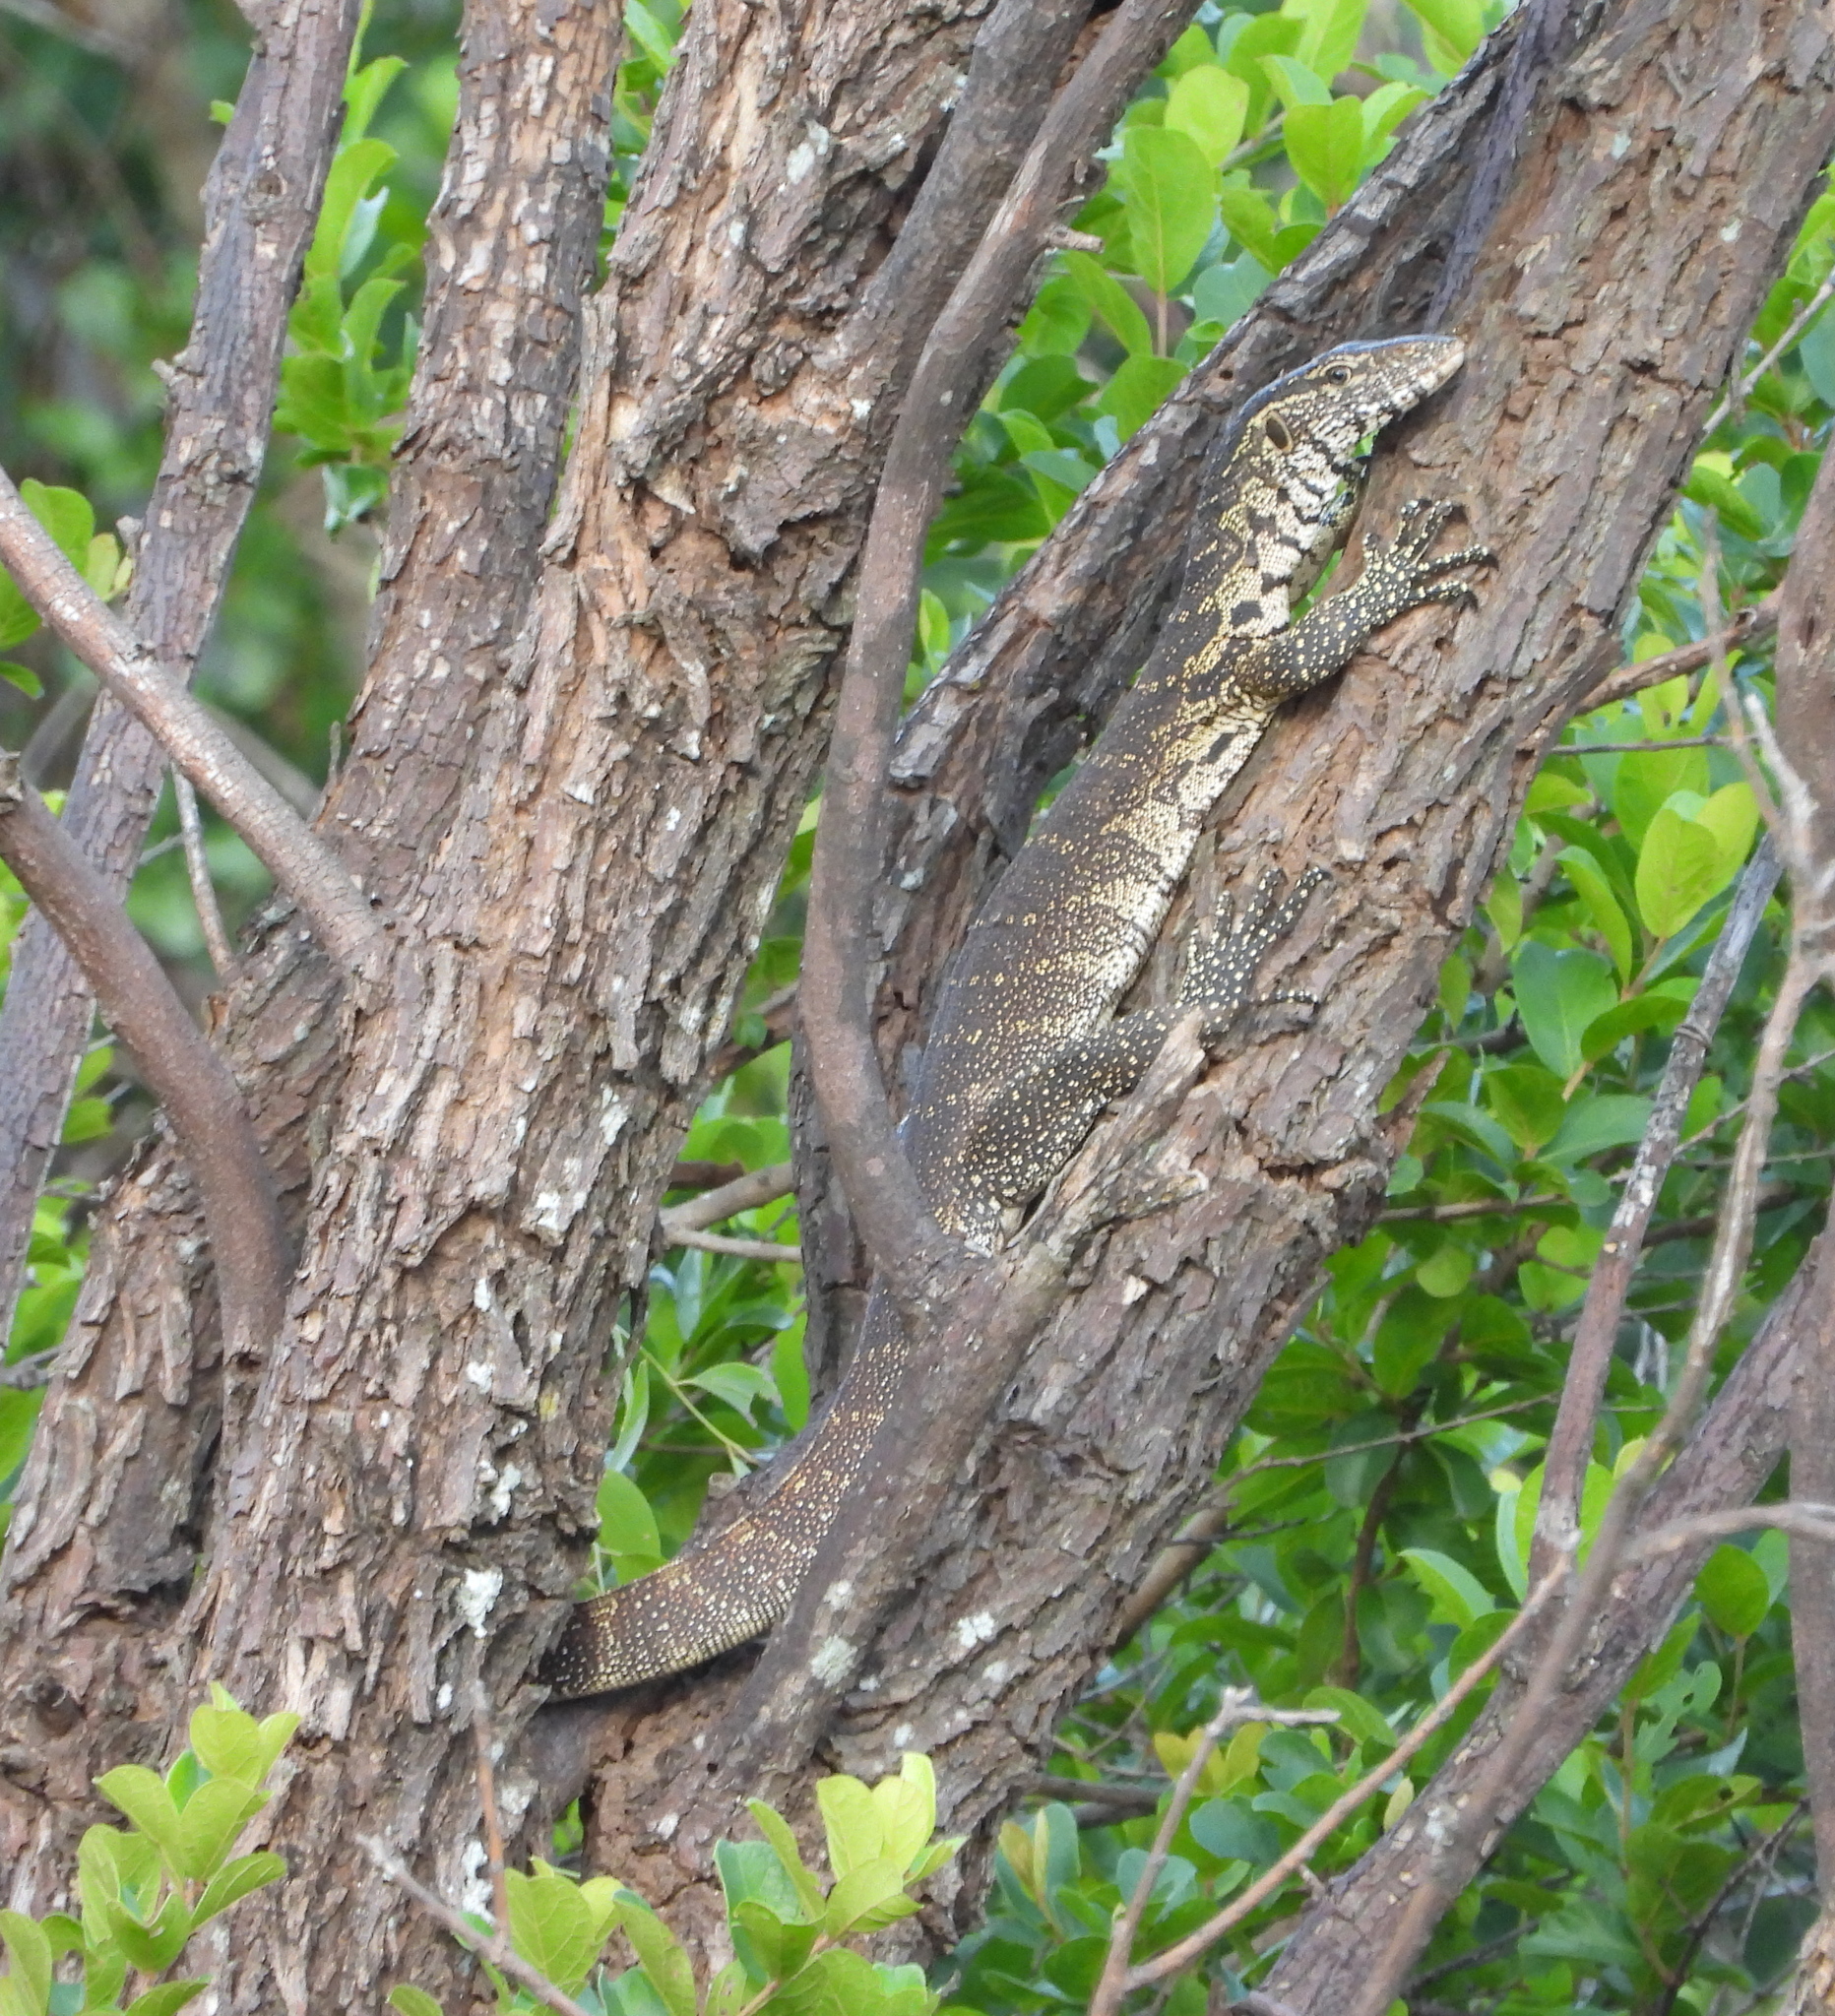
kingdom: Animalia
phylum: Chordata
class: Squamata
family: Varanidae
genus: Varanus
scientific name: Varanus niloticus
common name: Nile monitor
